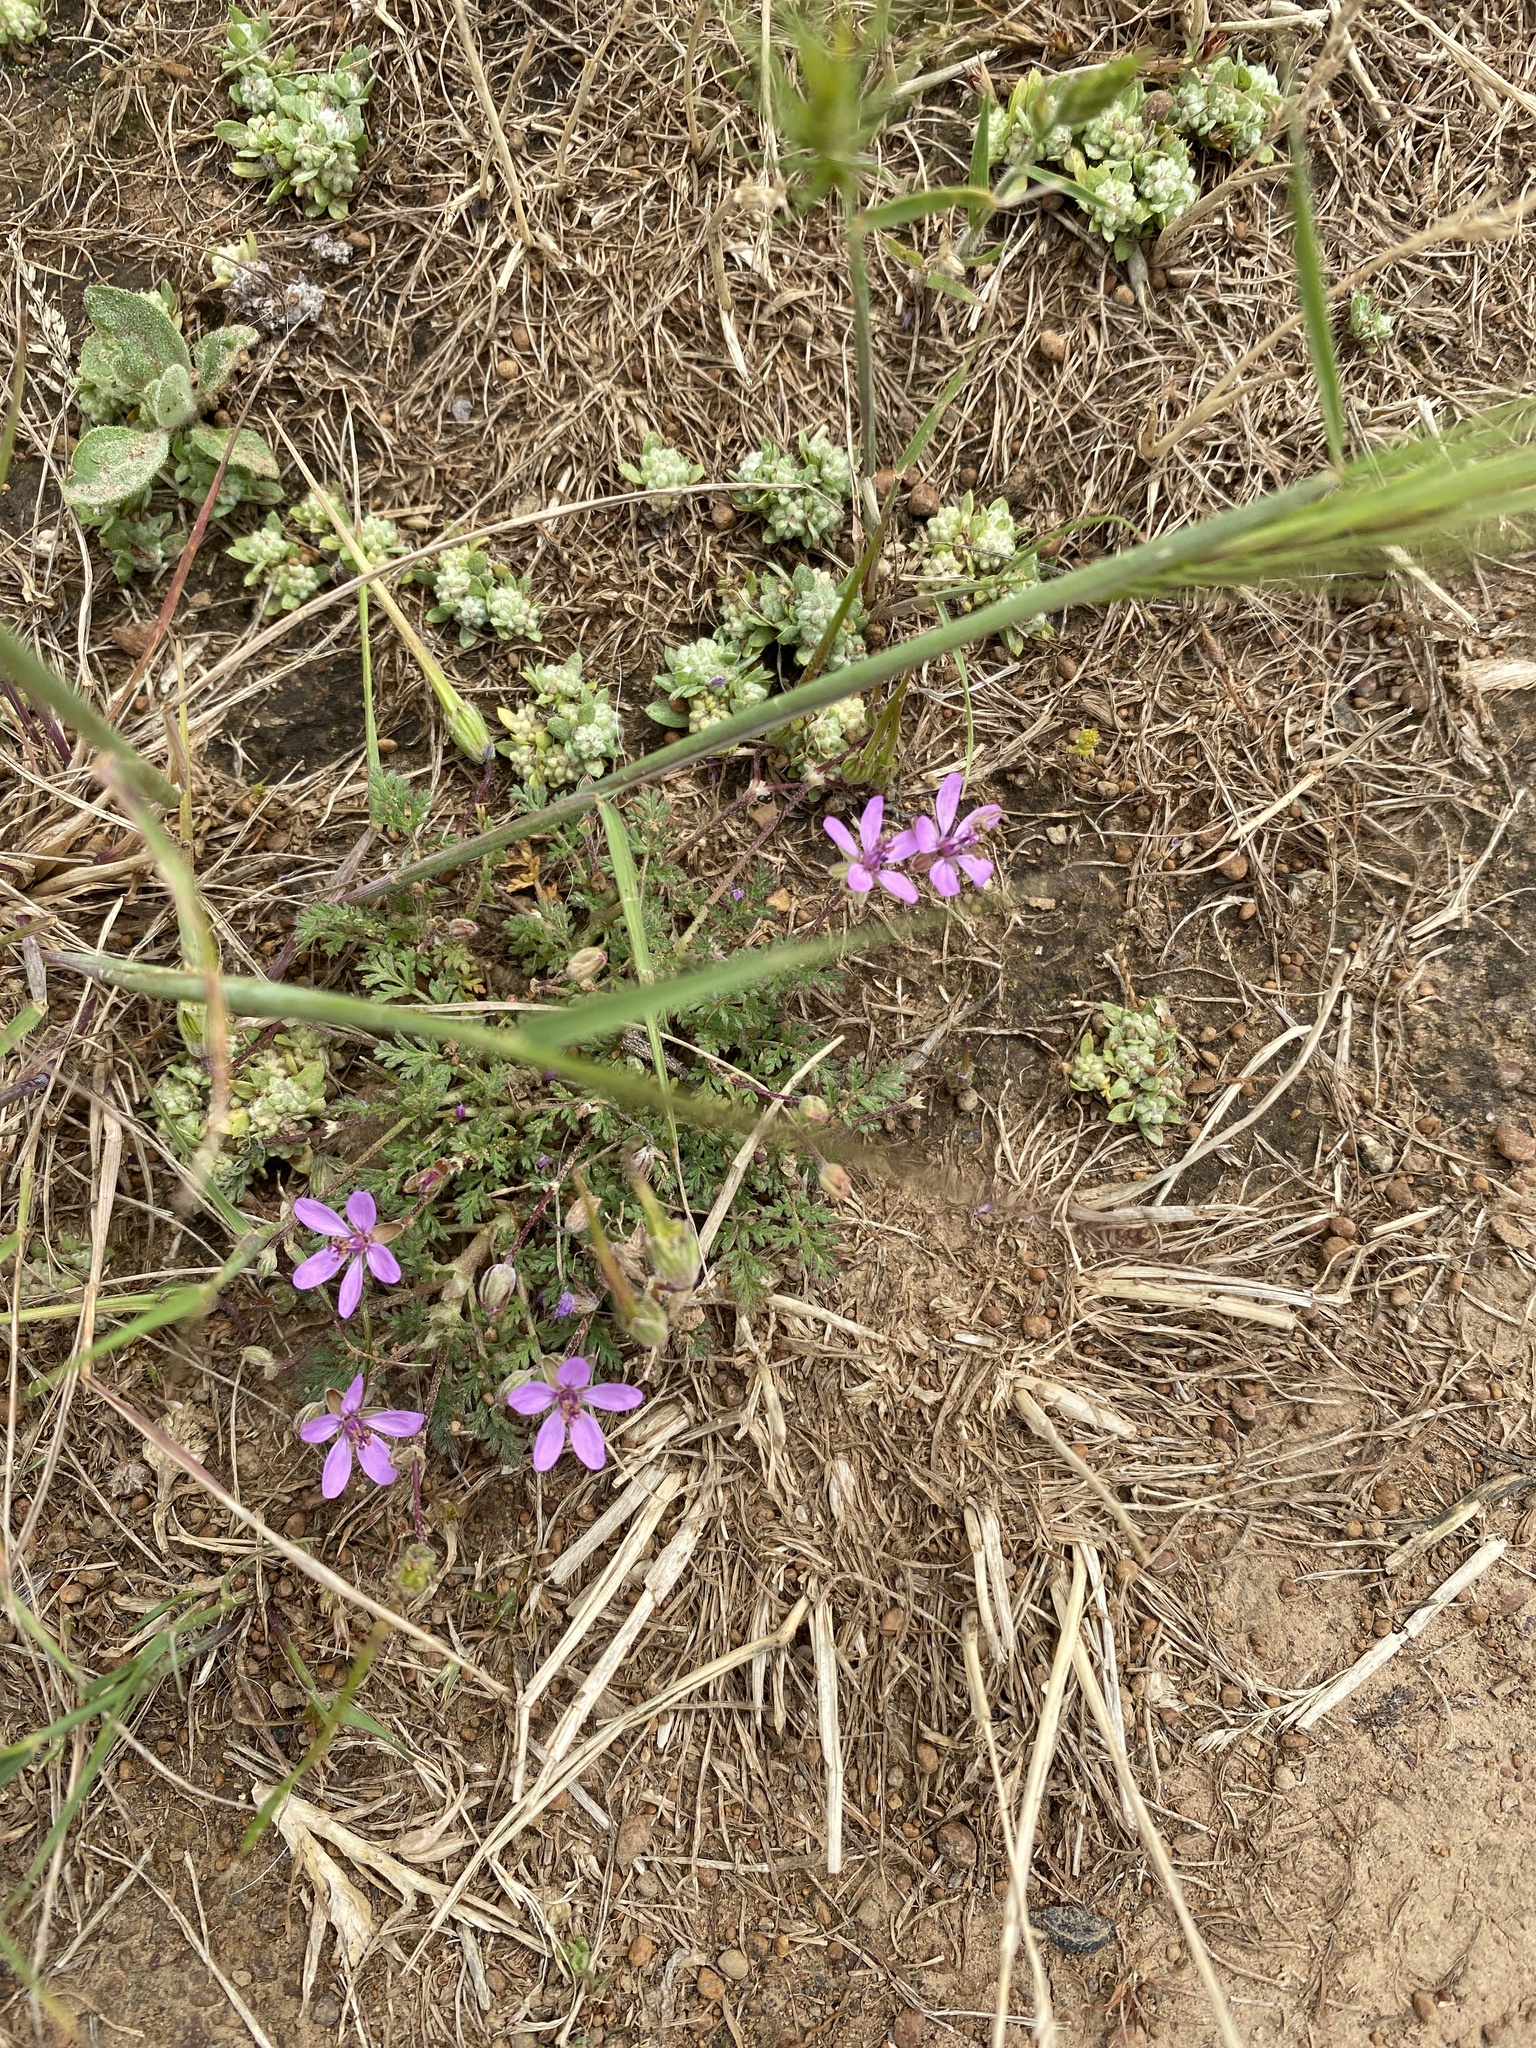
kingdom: Plantae
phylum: Tracheophyta
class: Magnoliopsida
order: Geraniales
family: Geraniaceae
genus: Erodium
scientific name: Erodium cicutarium
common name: Common stork's-bill
